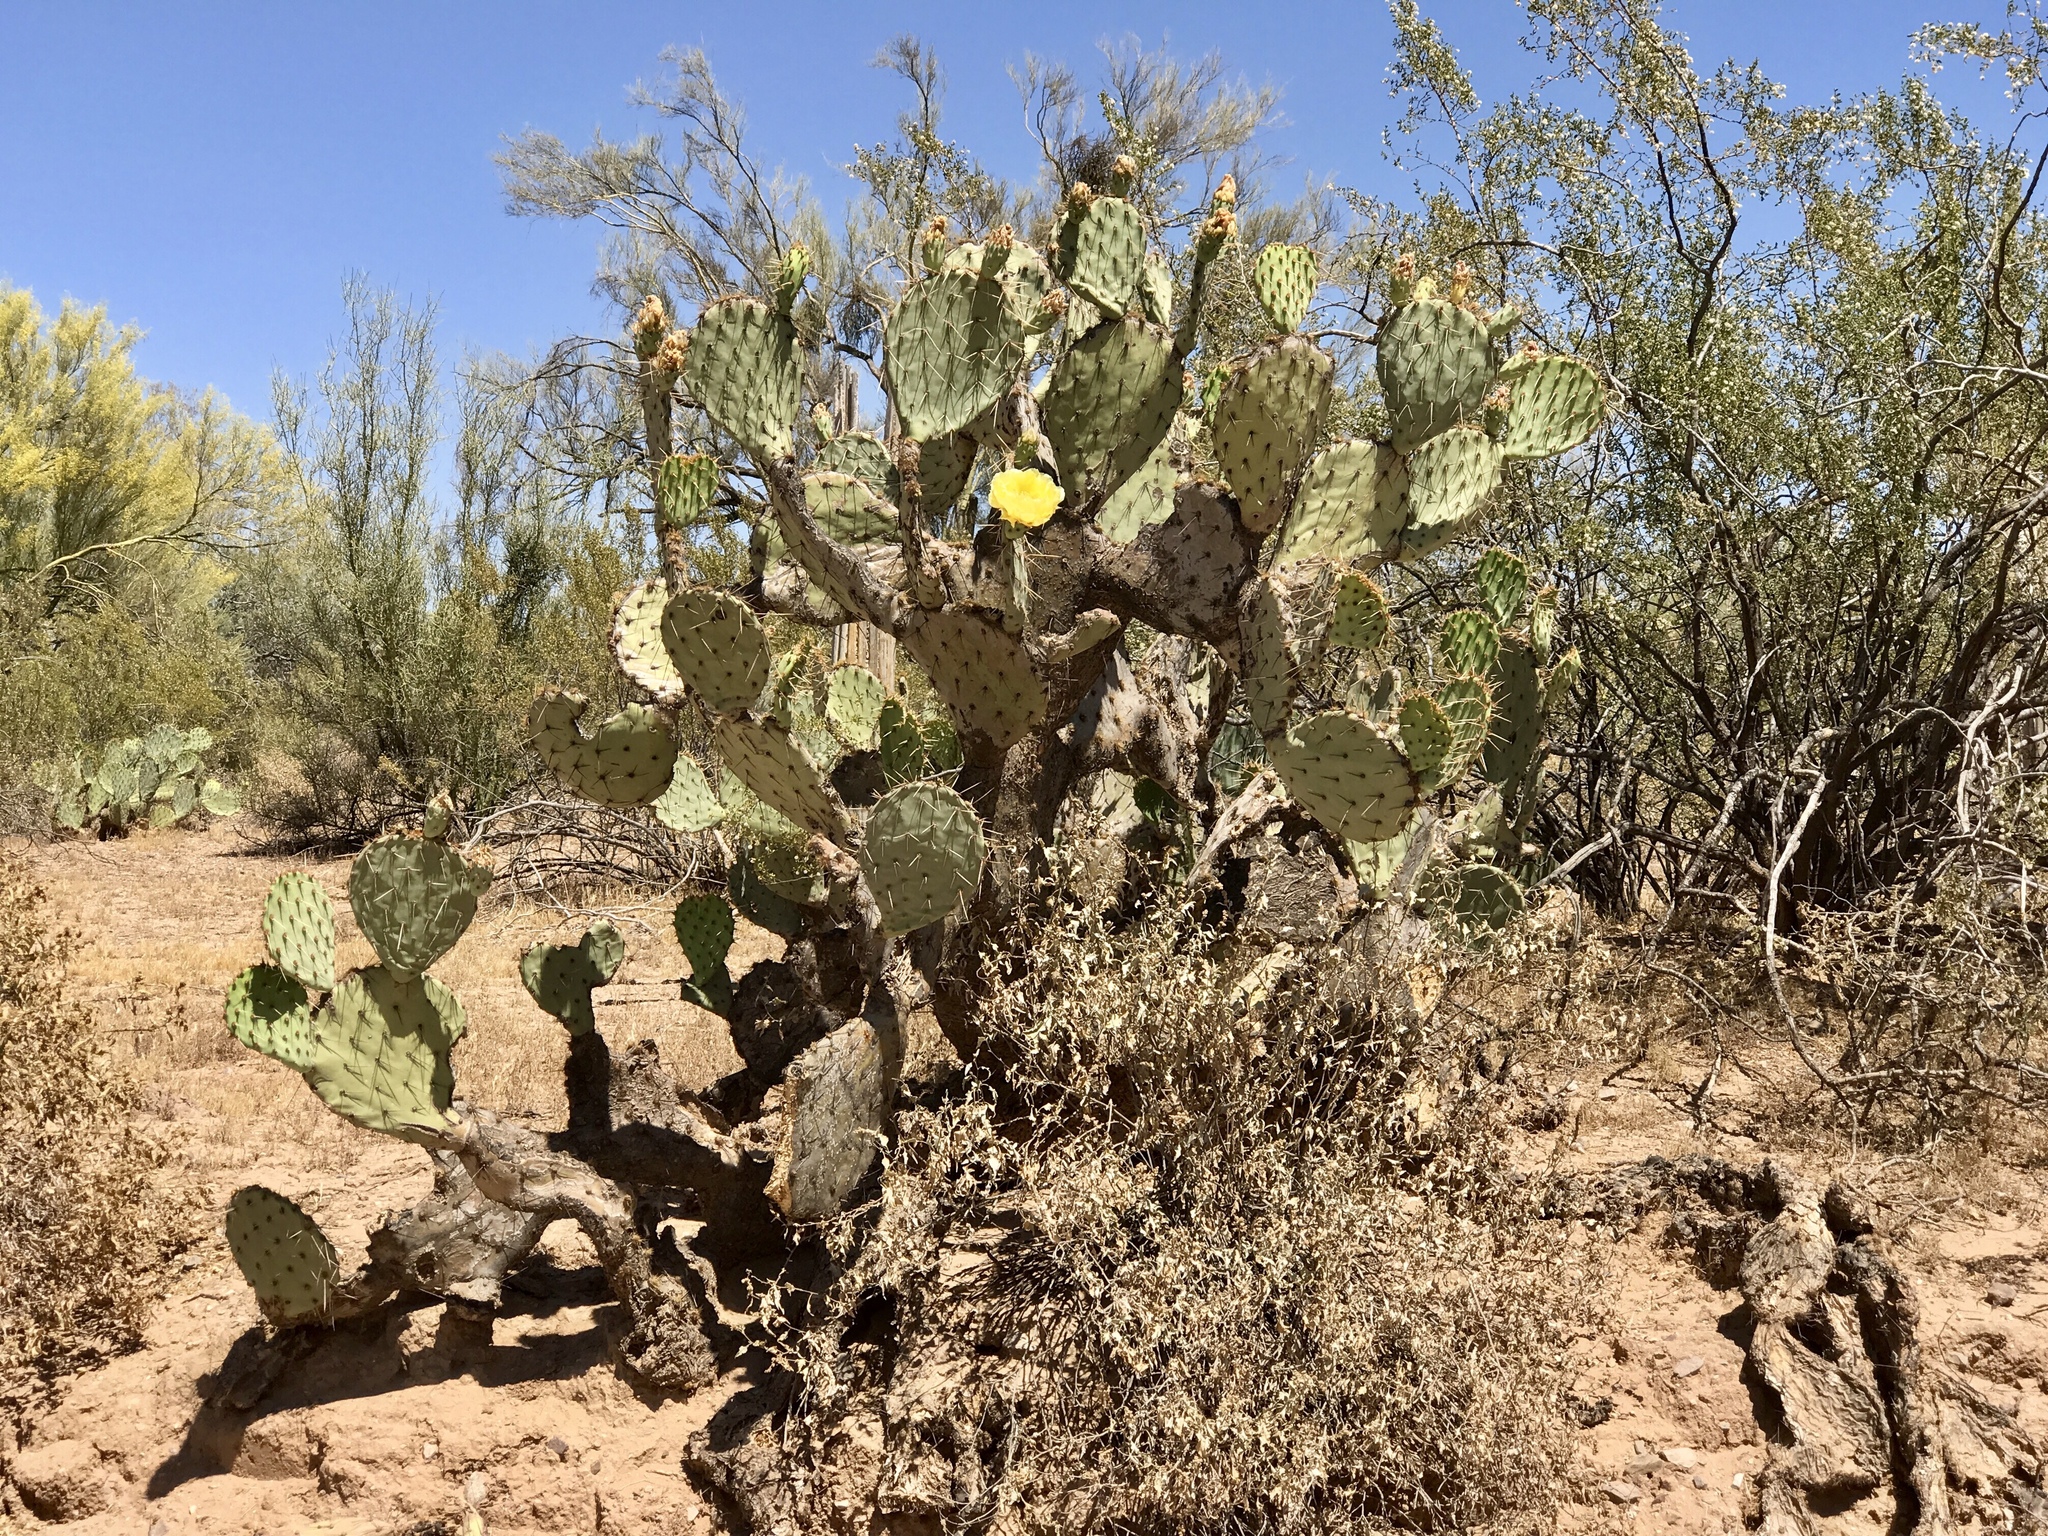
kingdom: Plantae
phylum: Tracheophyta
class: Magnoliopsida
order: Caryophyllales
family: Cactaceae
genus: Opuntia
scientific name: Opuntia engelmannii
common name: Cactus-apple
